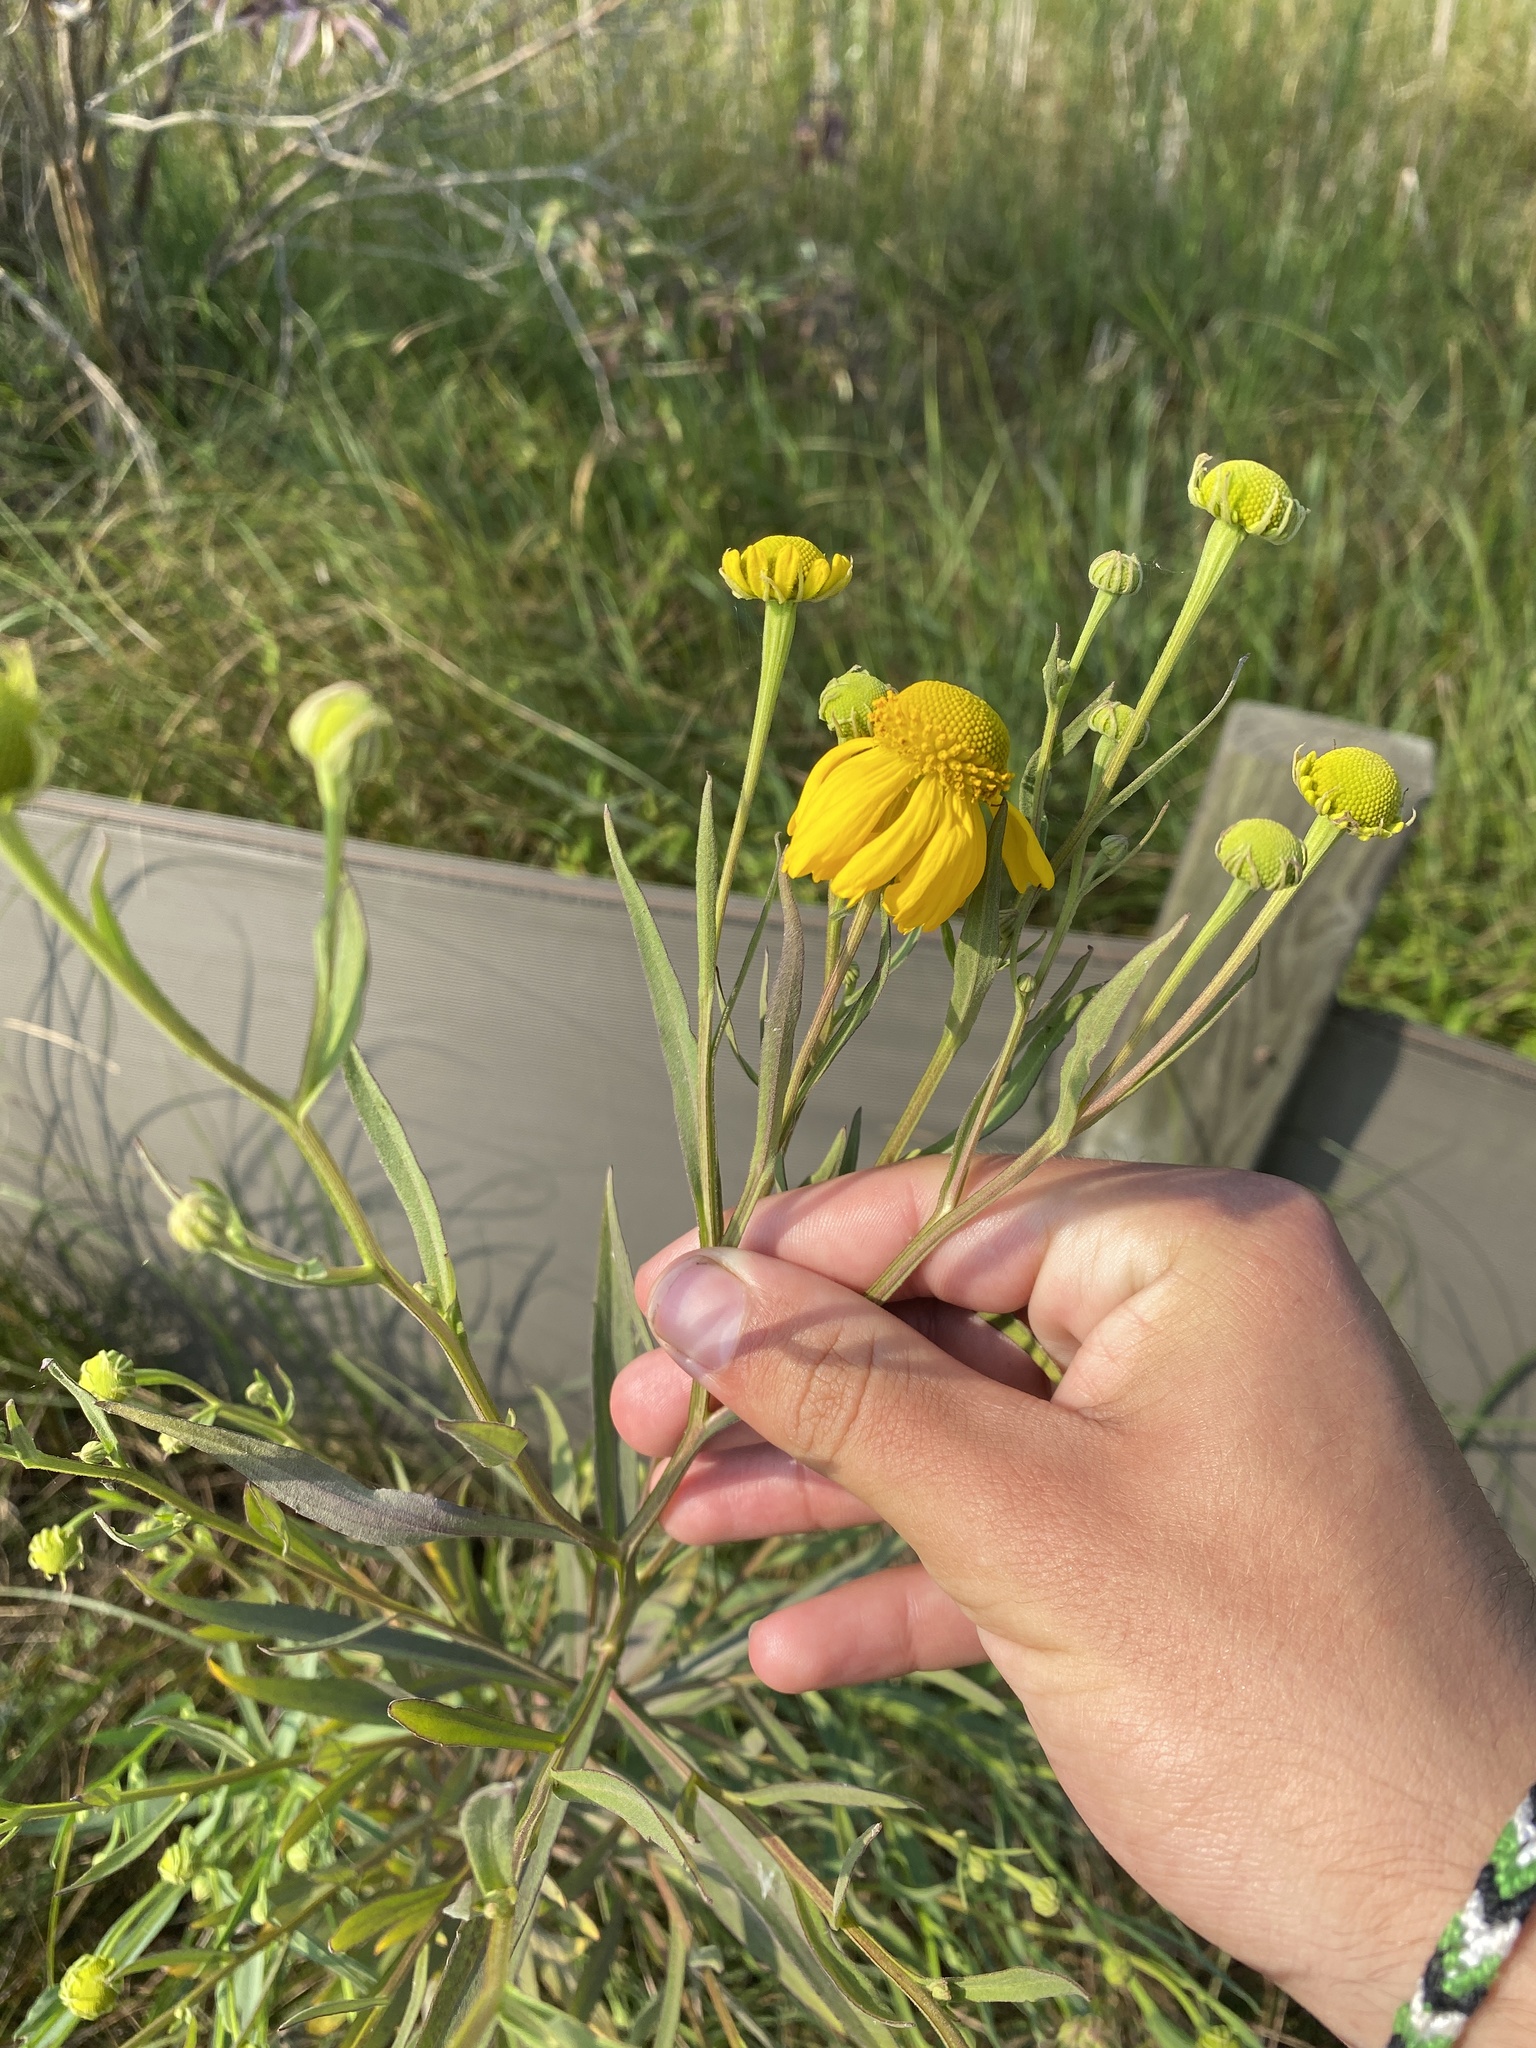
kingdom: Plantae
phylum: Tracheophyta
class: Magnoliopsida
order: Asterales
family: Asteraceae
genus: Helenium
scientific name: Helenium autumnale
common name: Sneezeweed
